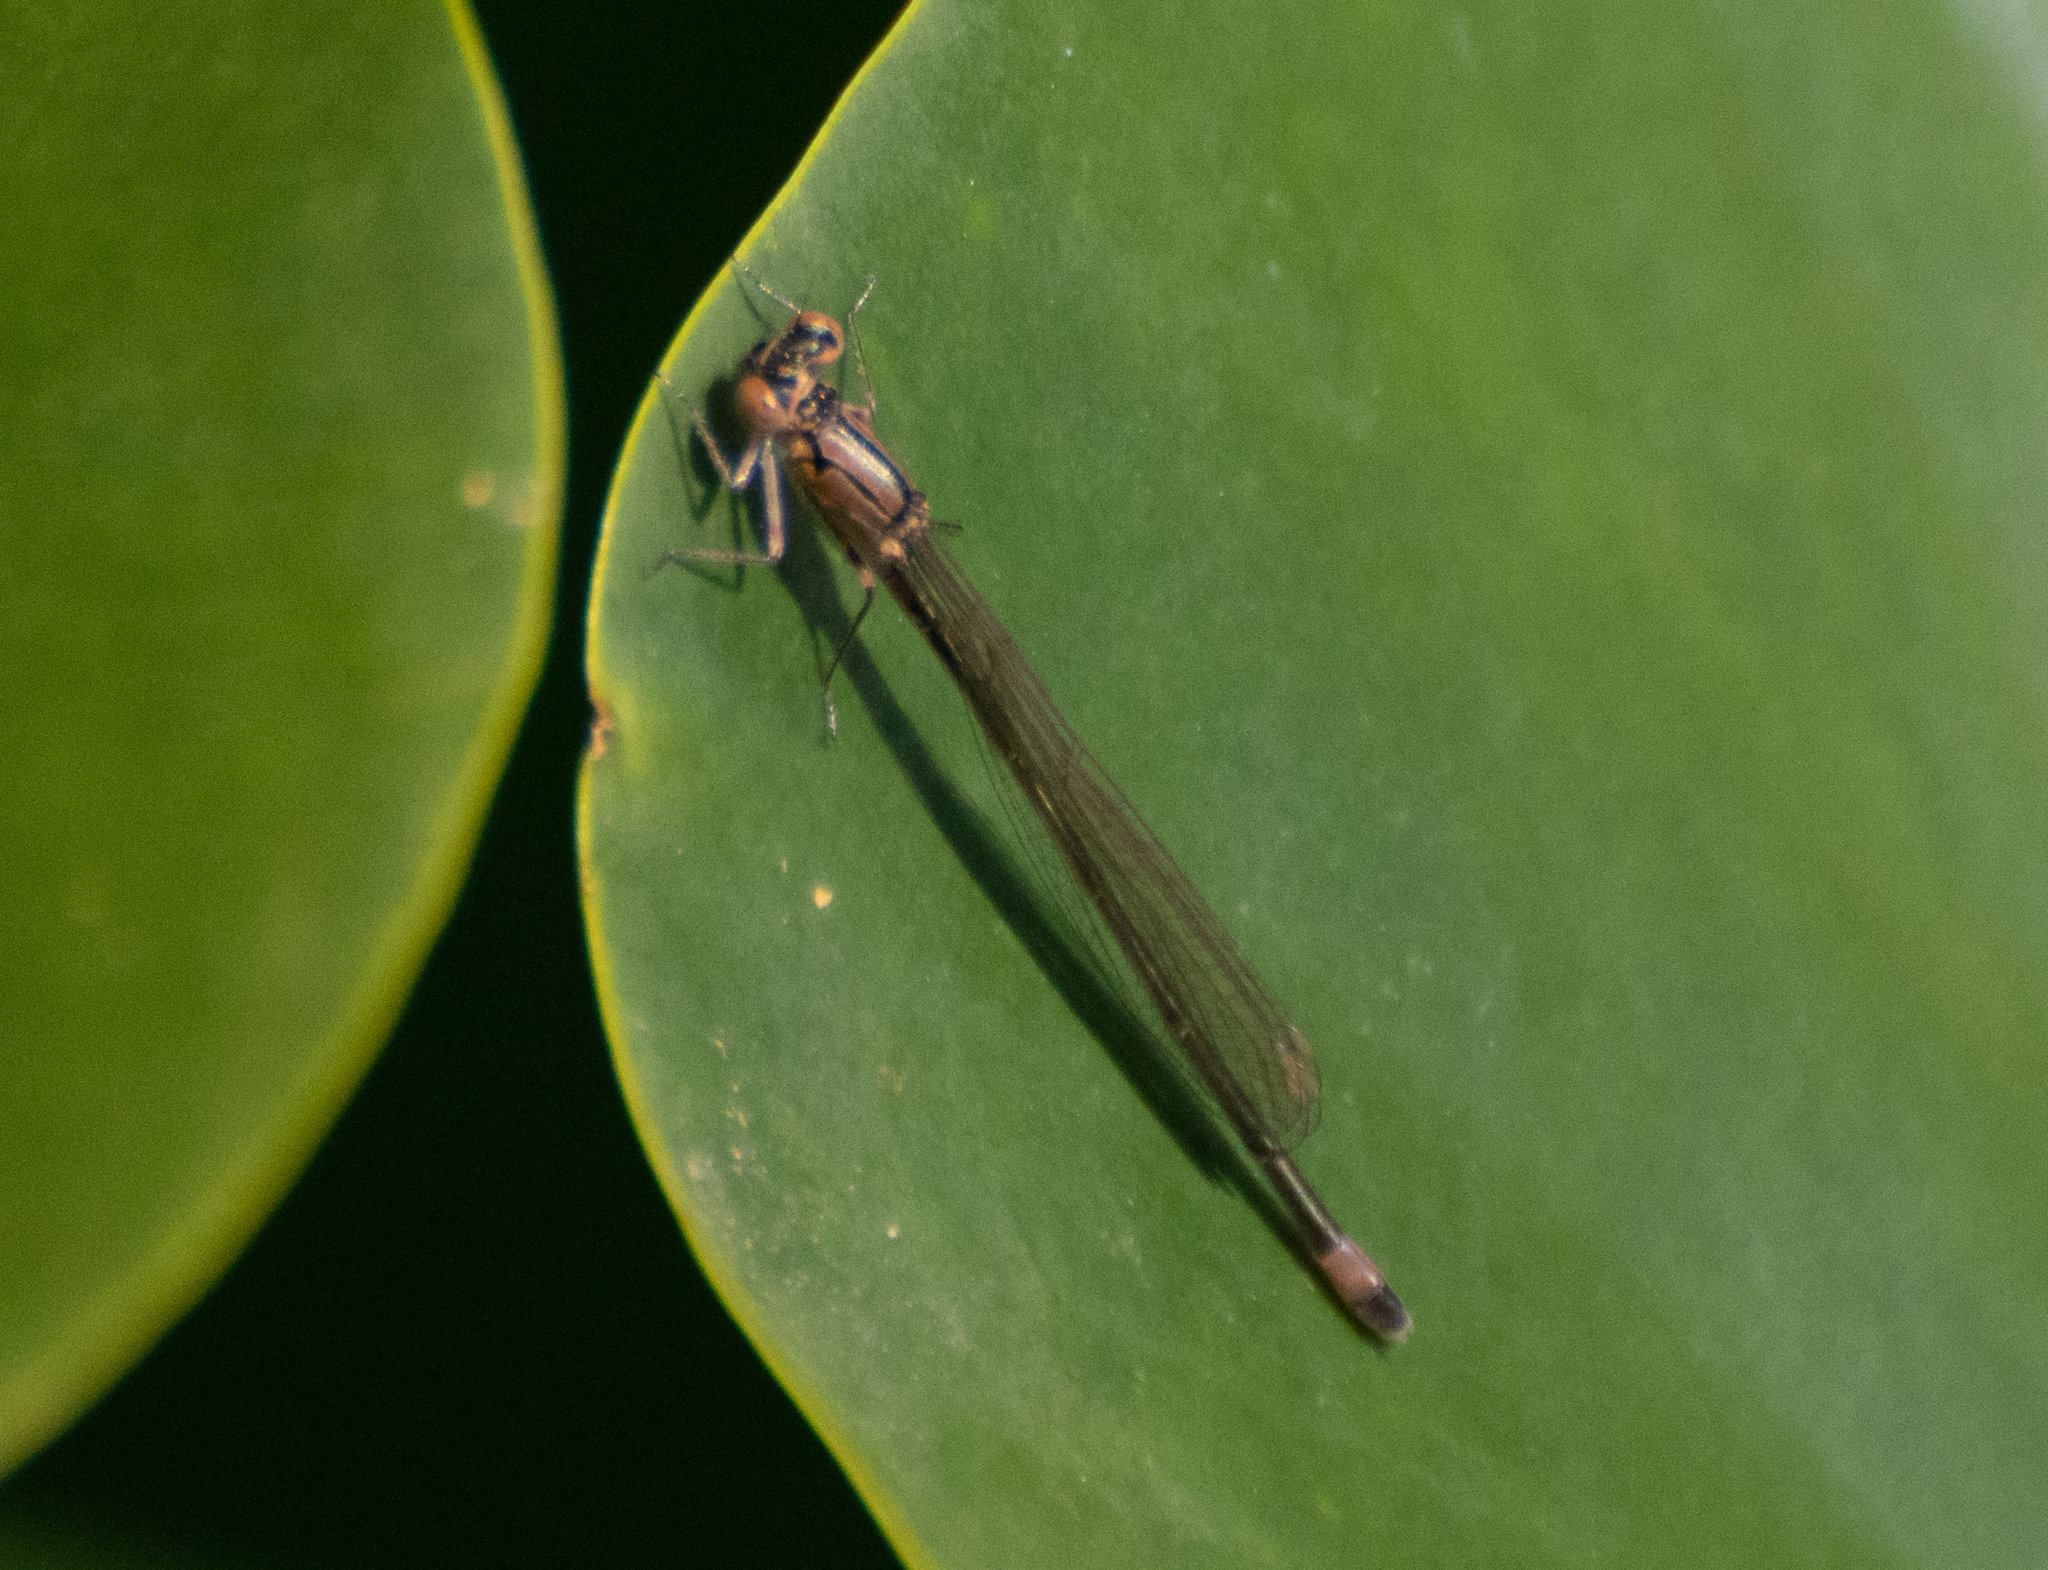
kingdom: Animalia
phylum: Arthropoda
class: Insecta
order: Odonata
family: Coenagrionidae
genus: Ischnura
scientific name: Ischnura cervula
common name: Pacific forktail
